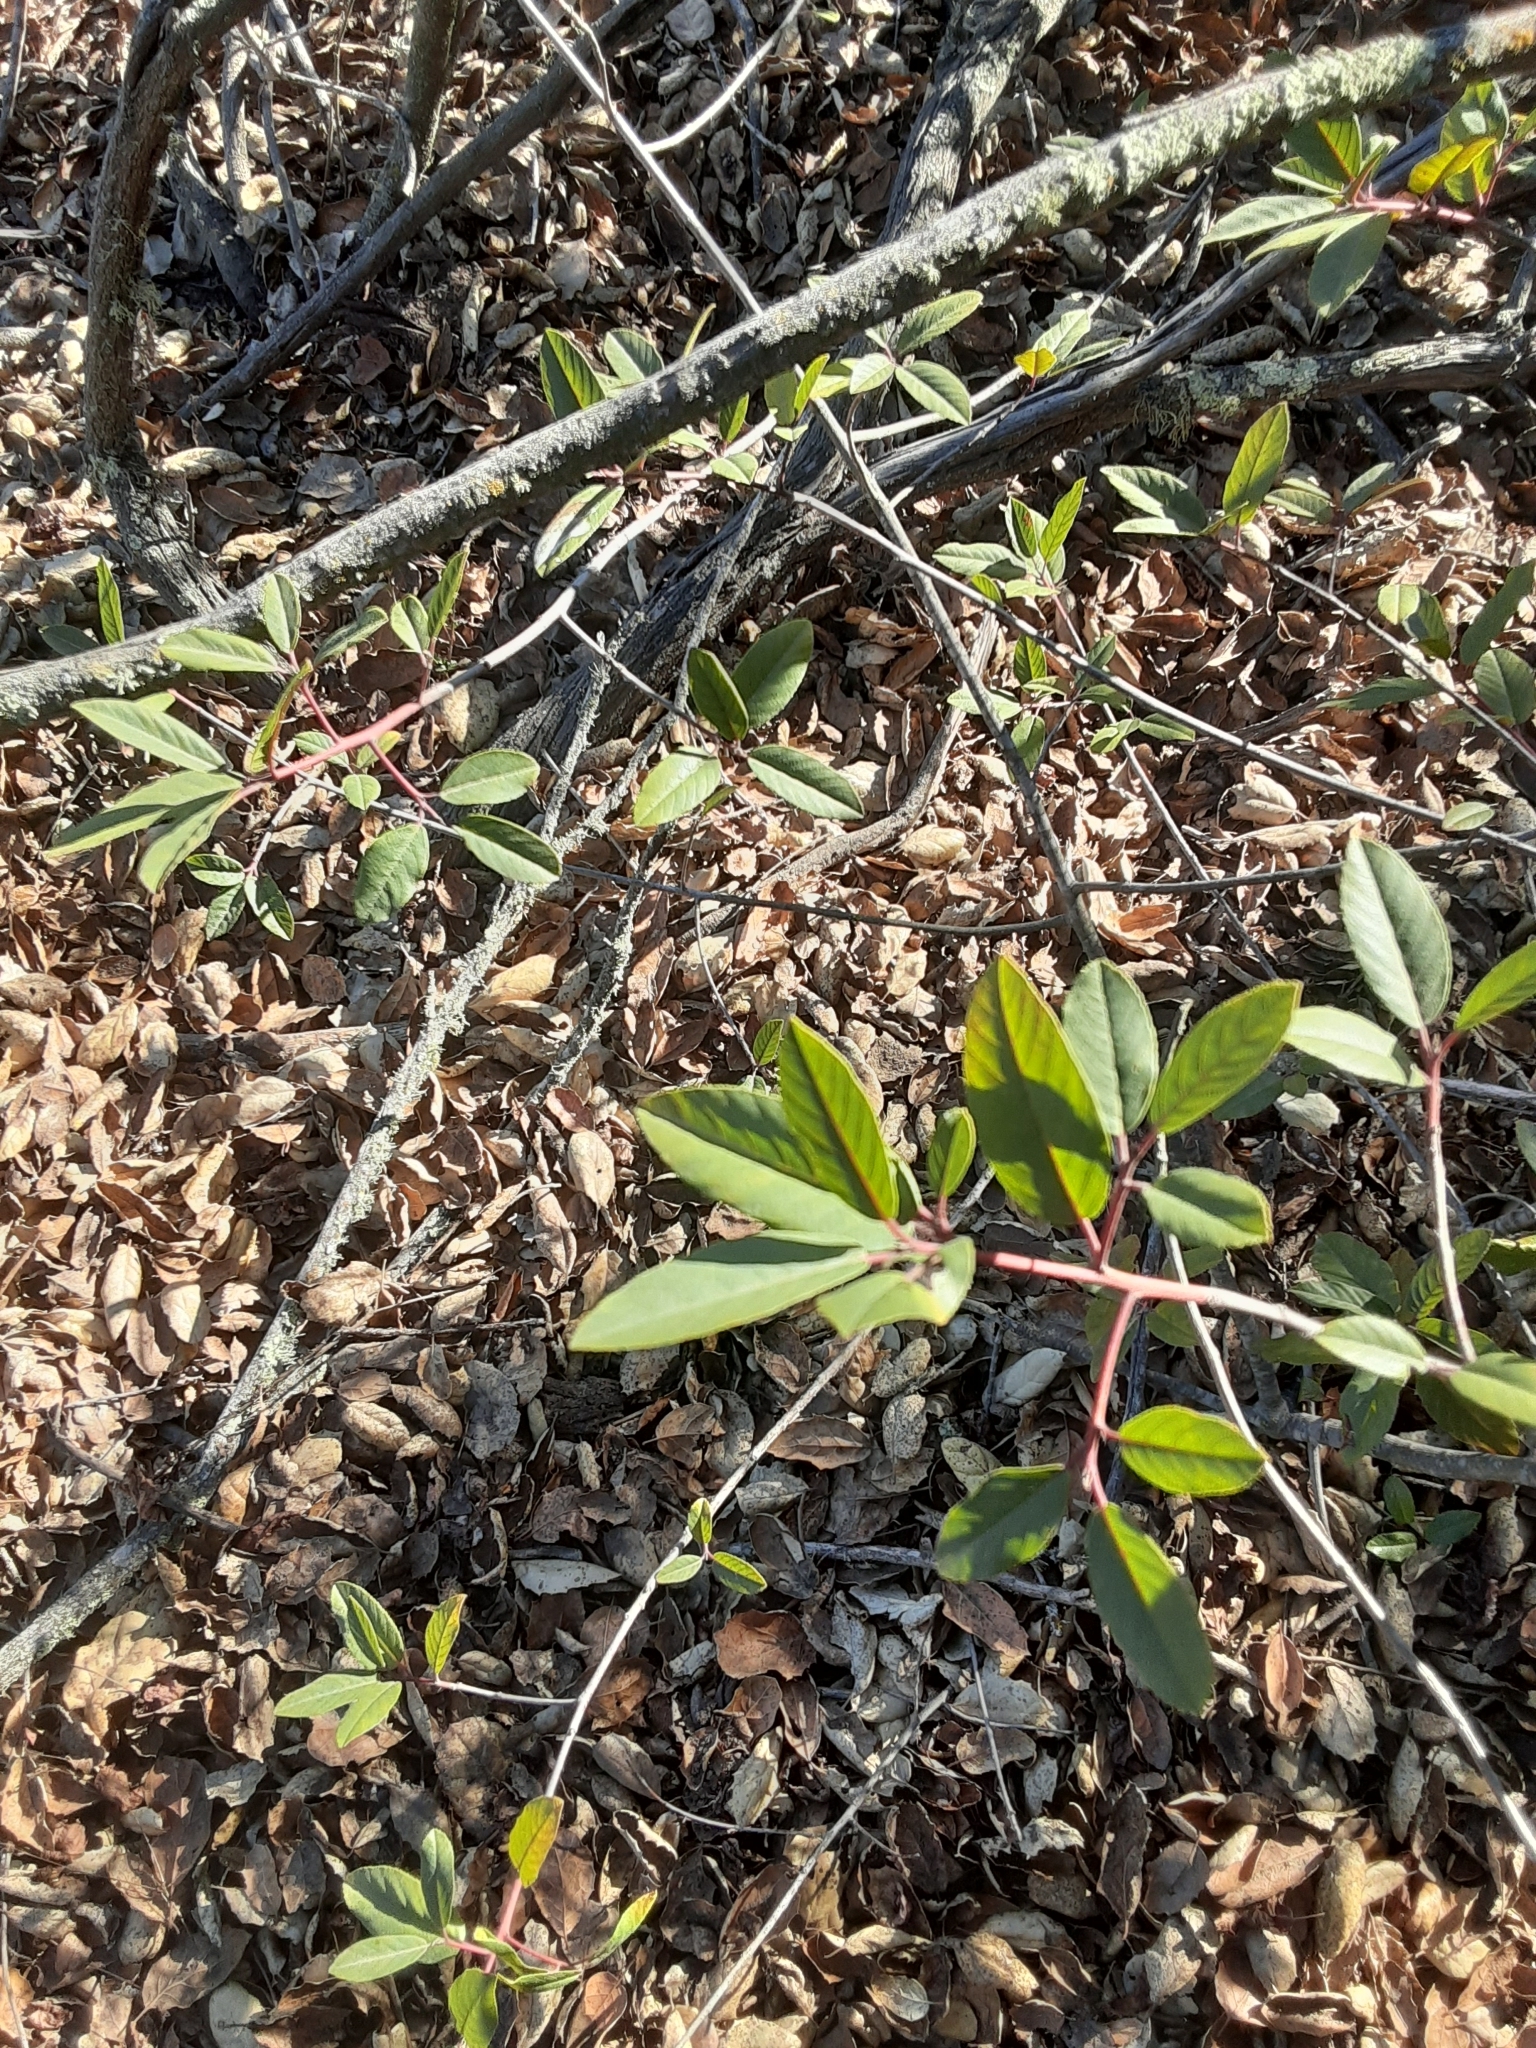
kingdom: Plantae
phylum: Tracheophyta
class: Magnoliopsida
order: Rosales
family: Rhamnaceae
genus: Frangula
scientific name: Frangula californica
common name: California buckthorn
